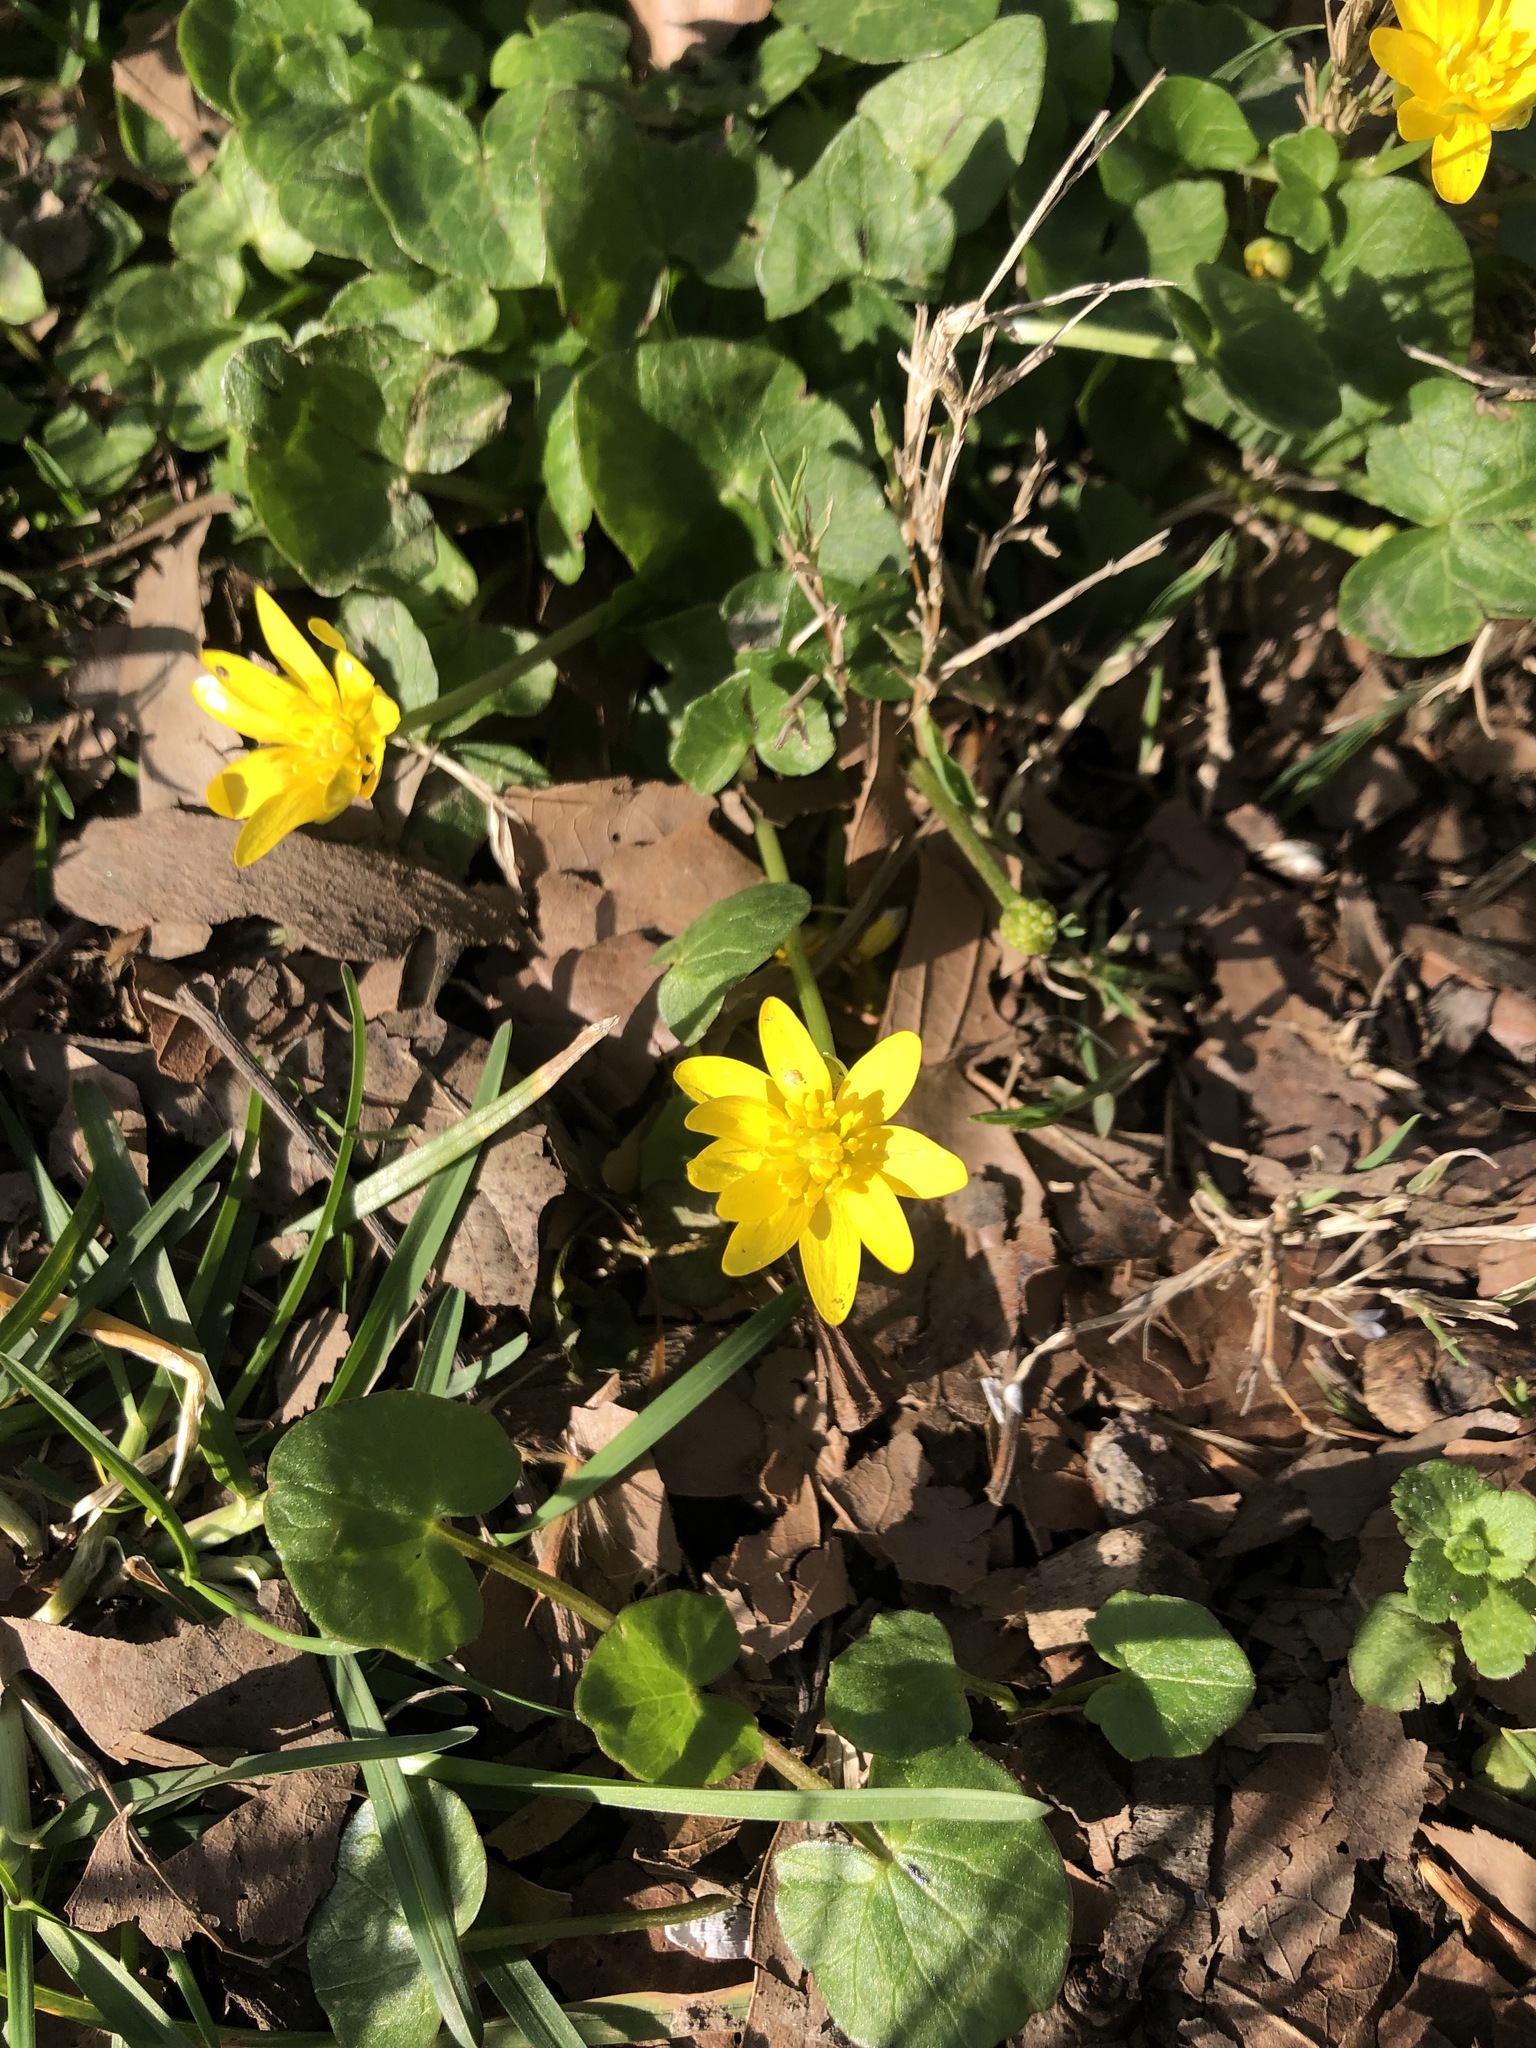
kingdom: Plantae
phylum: Tracheophyta
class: Magnoliopsida
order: Ranunculales
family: Ranunculaceae
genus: Ficaria
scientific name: Ficaria verna
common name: Lesser celandine
